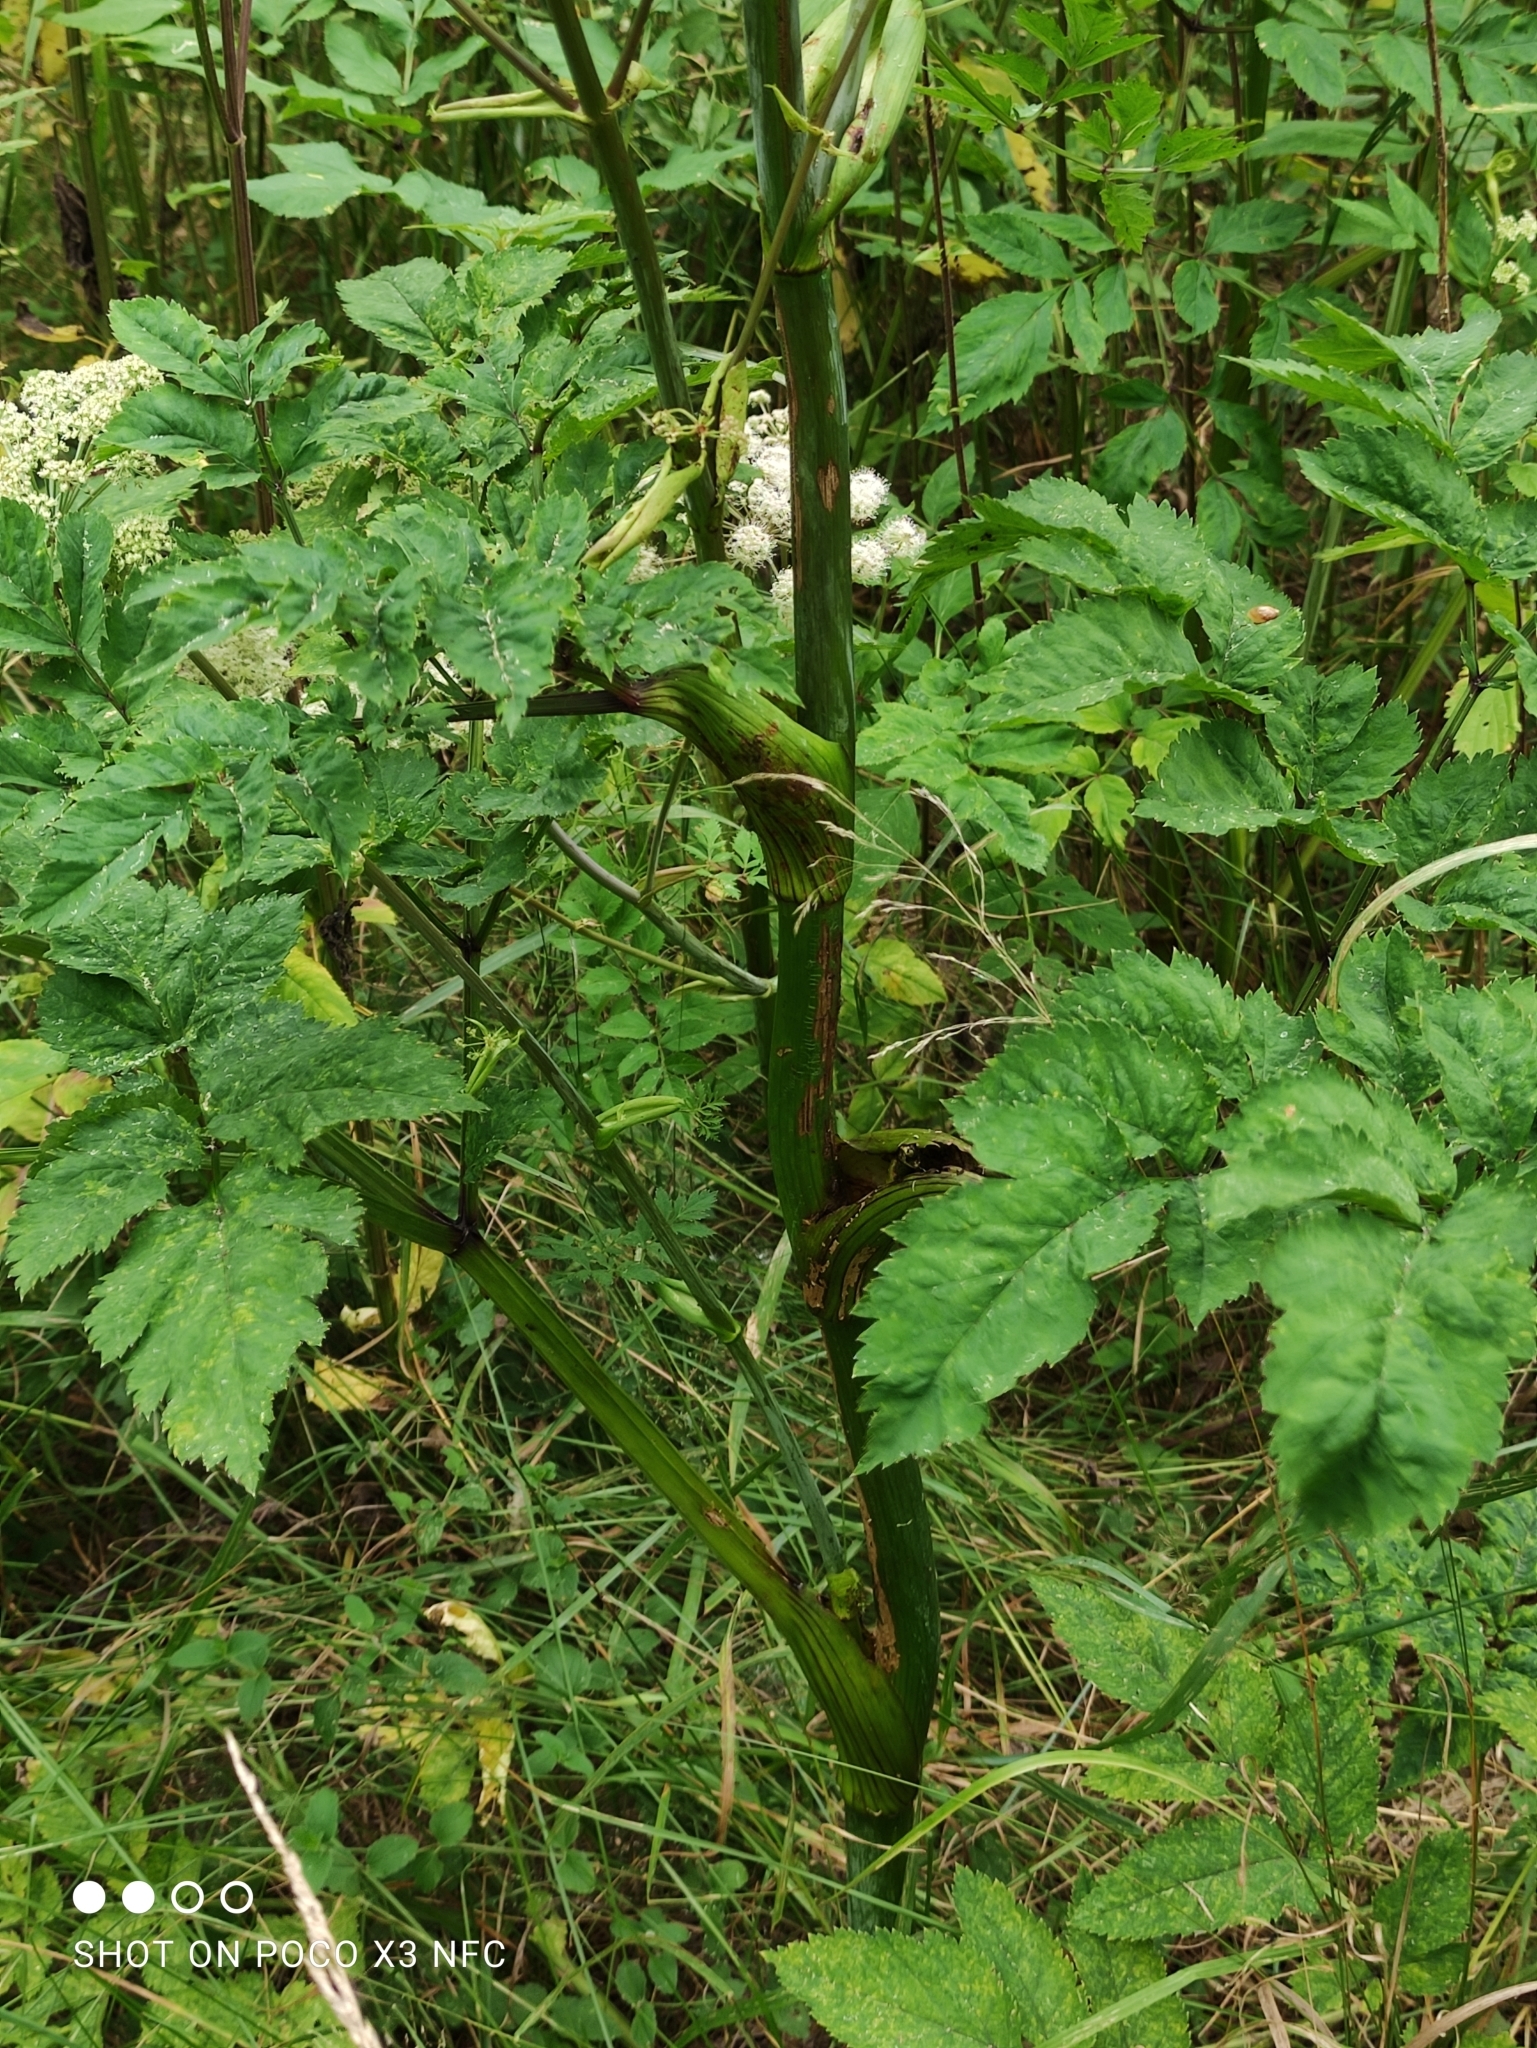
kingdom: Plantae
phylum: Tracheophyta
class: Magnoliopsida
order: Apiales
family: Apiaceae
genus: Angelica
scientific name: Angelica sylvestris
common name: Wild angelica
